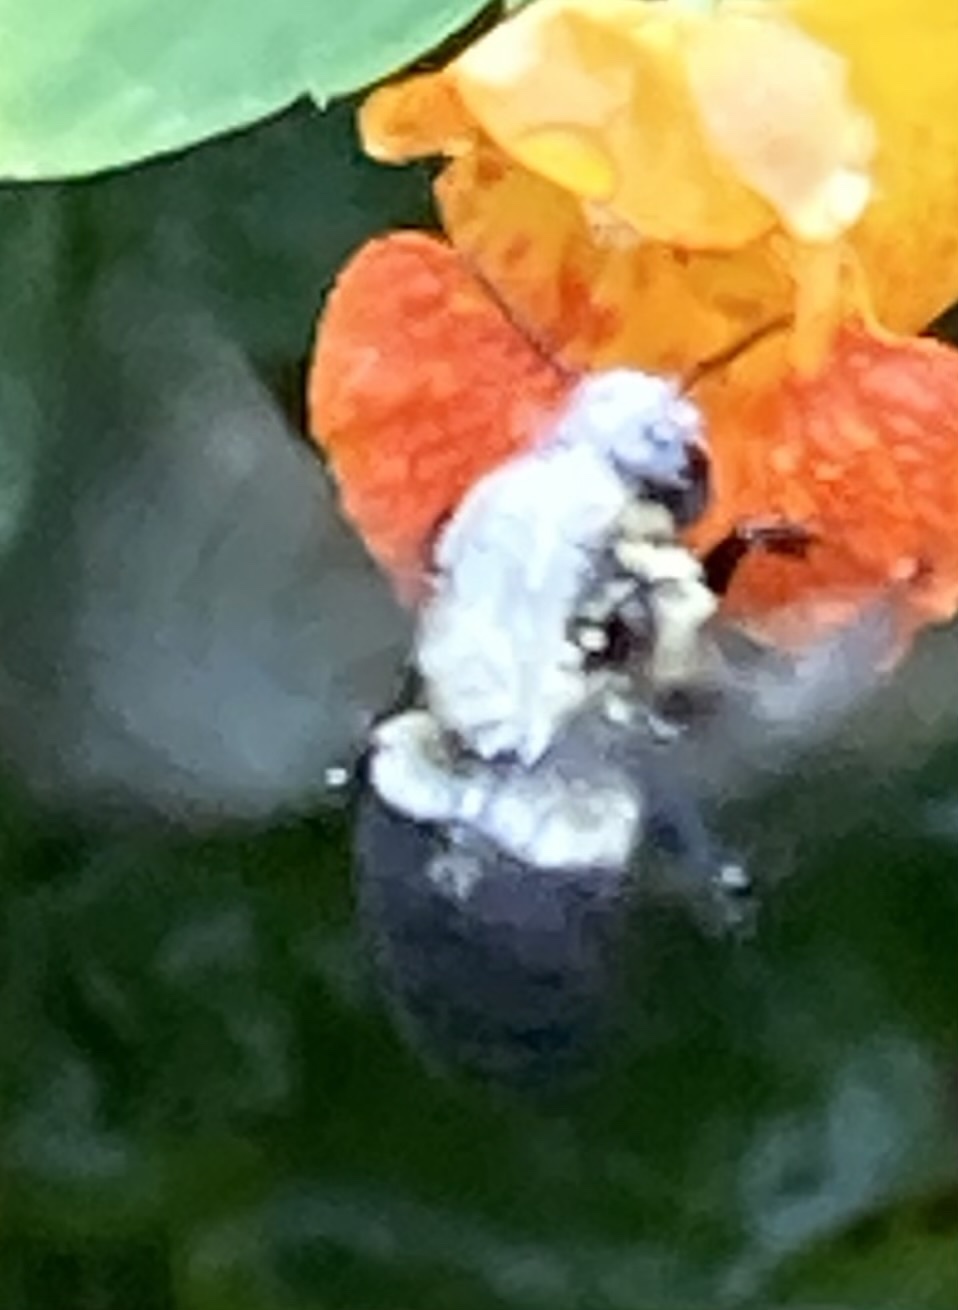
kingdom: Animalia
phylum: Arthropoda
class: Insecta
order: Hymenoptera
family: Apidae
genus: Bombus
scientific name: Bombus impatiens
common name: Common eastern bumble bee
